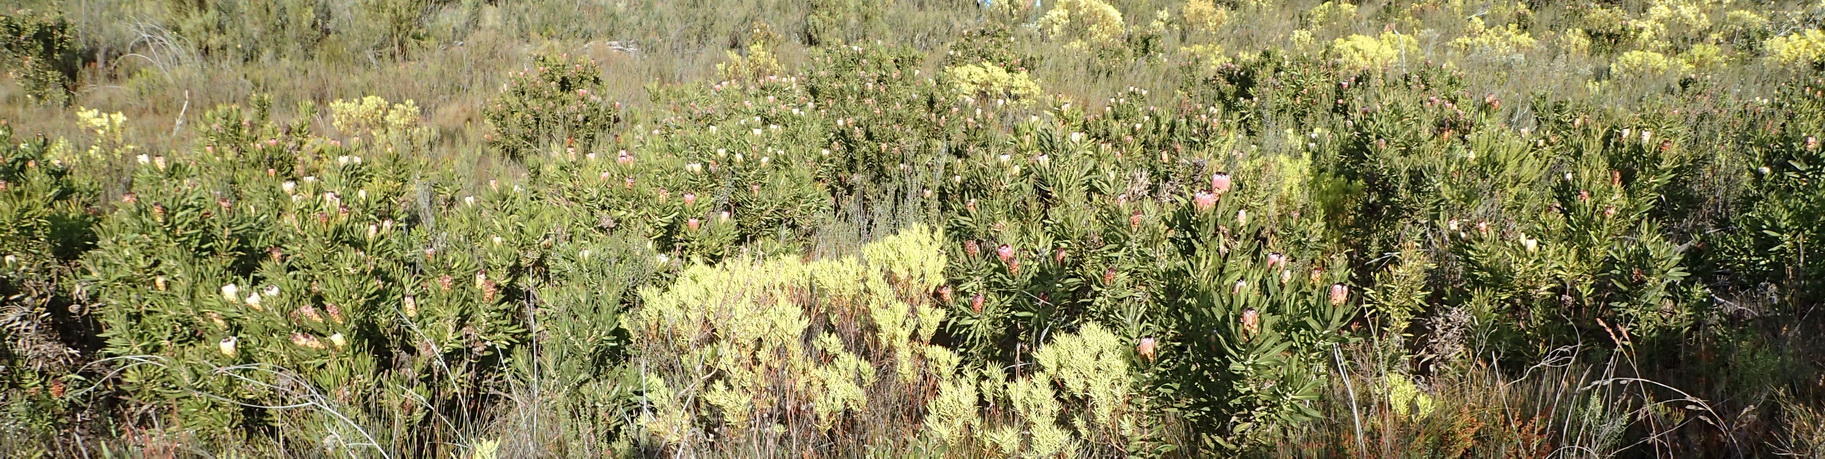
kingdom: Plantae
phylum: Tracheophyta
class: Magnoliopsida
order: Proteales
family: Proteaceae
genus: Protea
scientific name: Protea neriifolia
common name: Blue sugarbush
